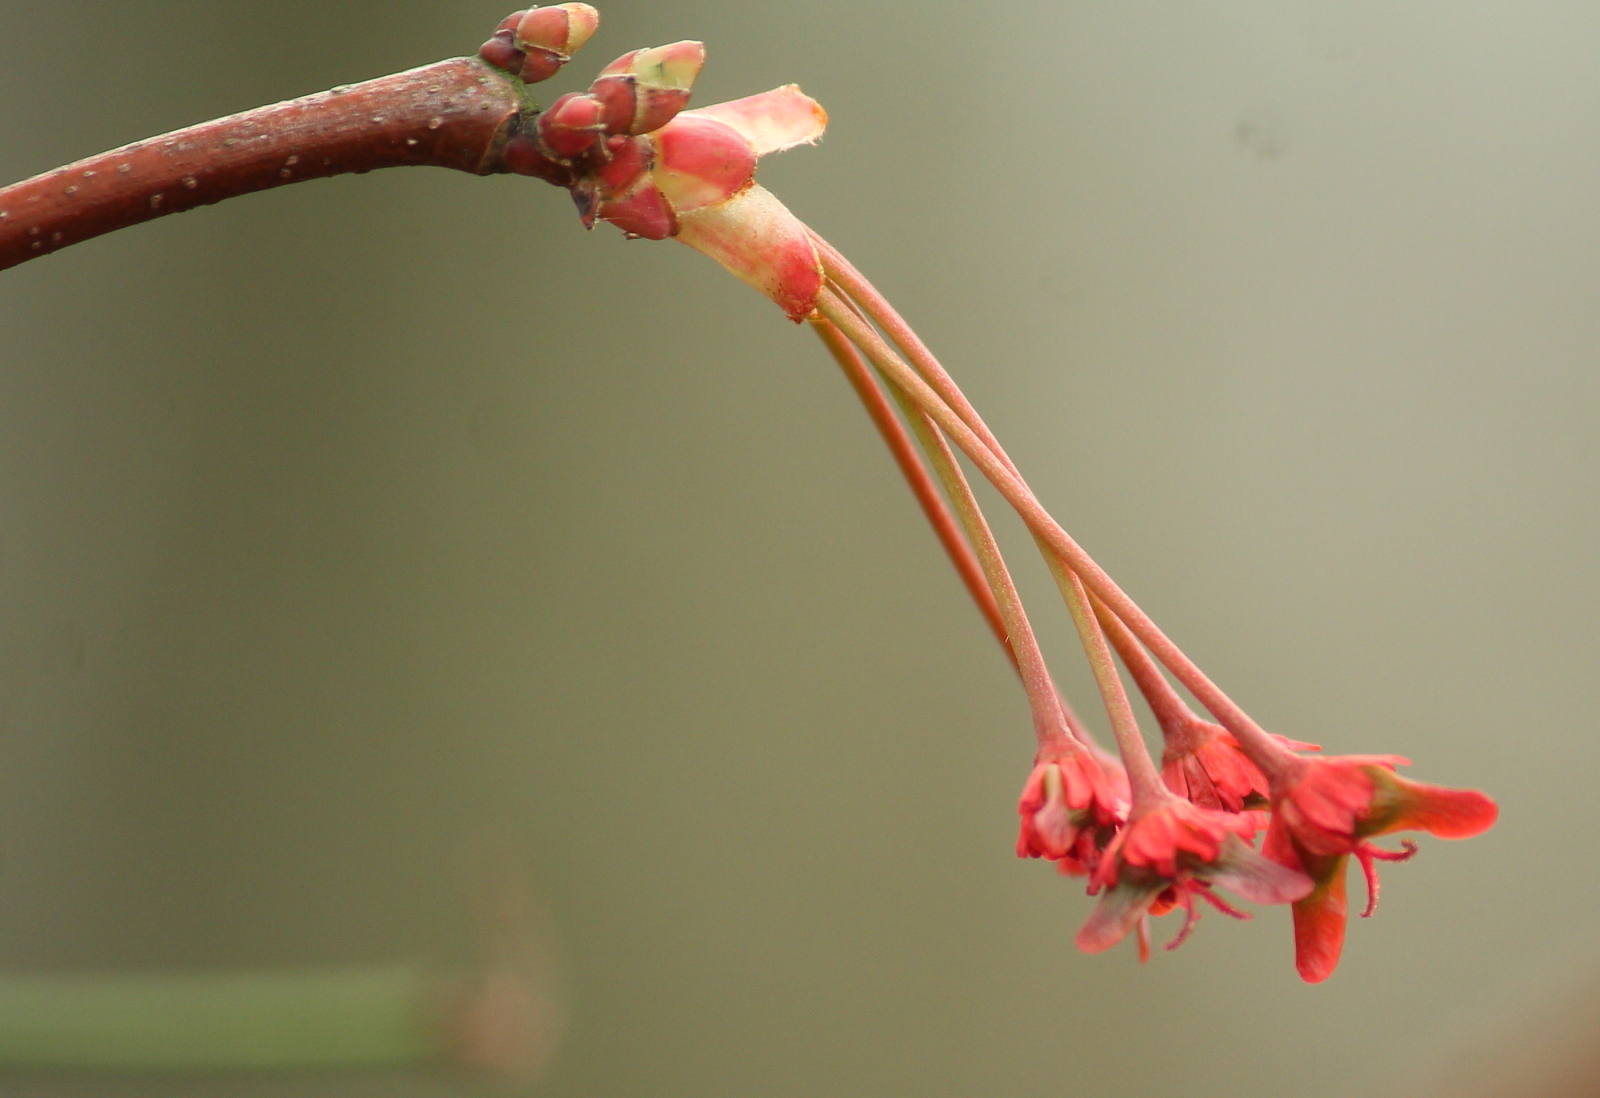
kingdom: Plantae
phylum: Tracheophyta
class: Magnoliopsida
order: Sapindales
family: Sapindaceae
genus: Acer
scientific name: Acer rubrum
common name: Red maple
